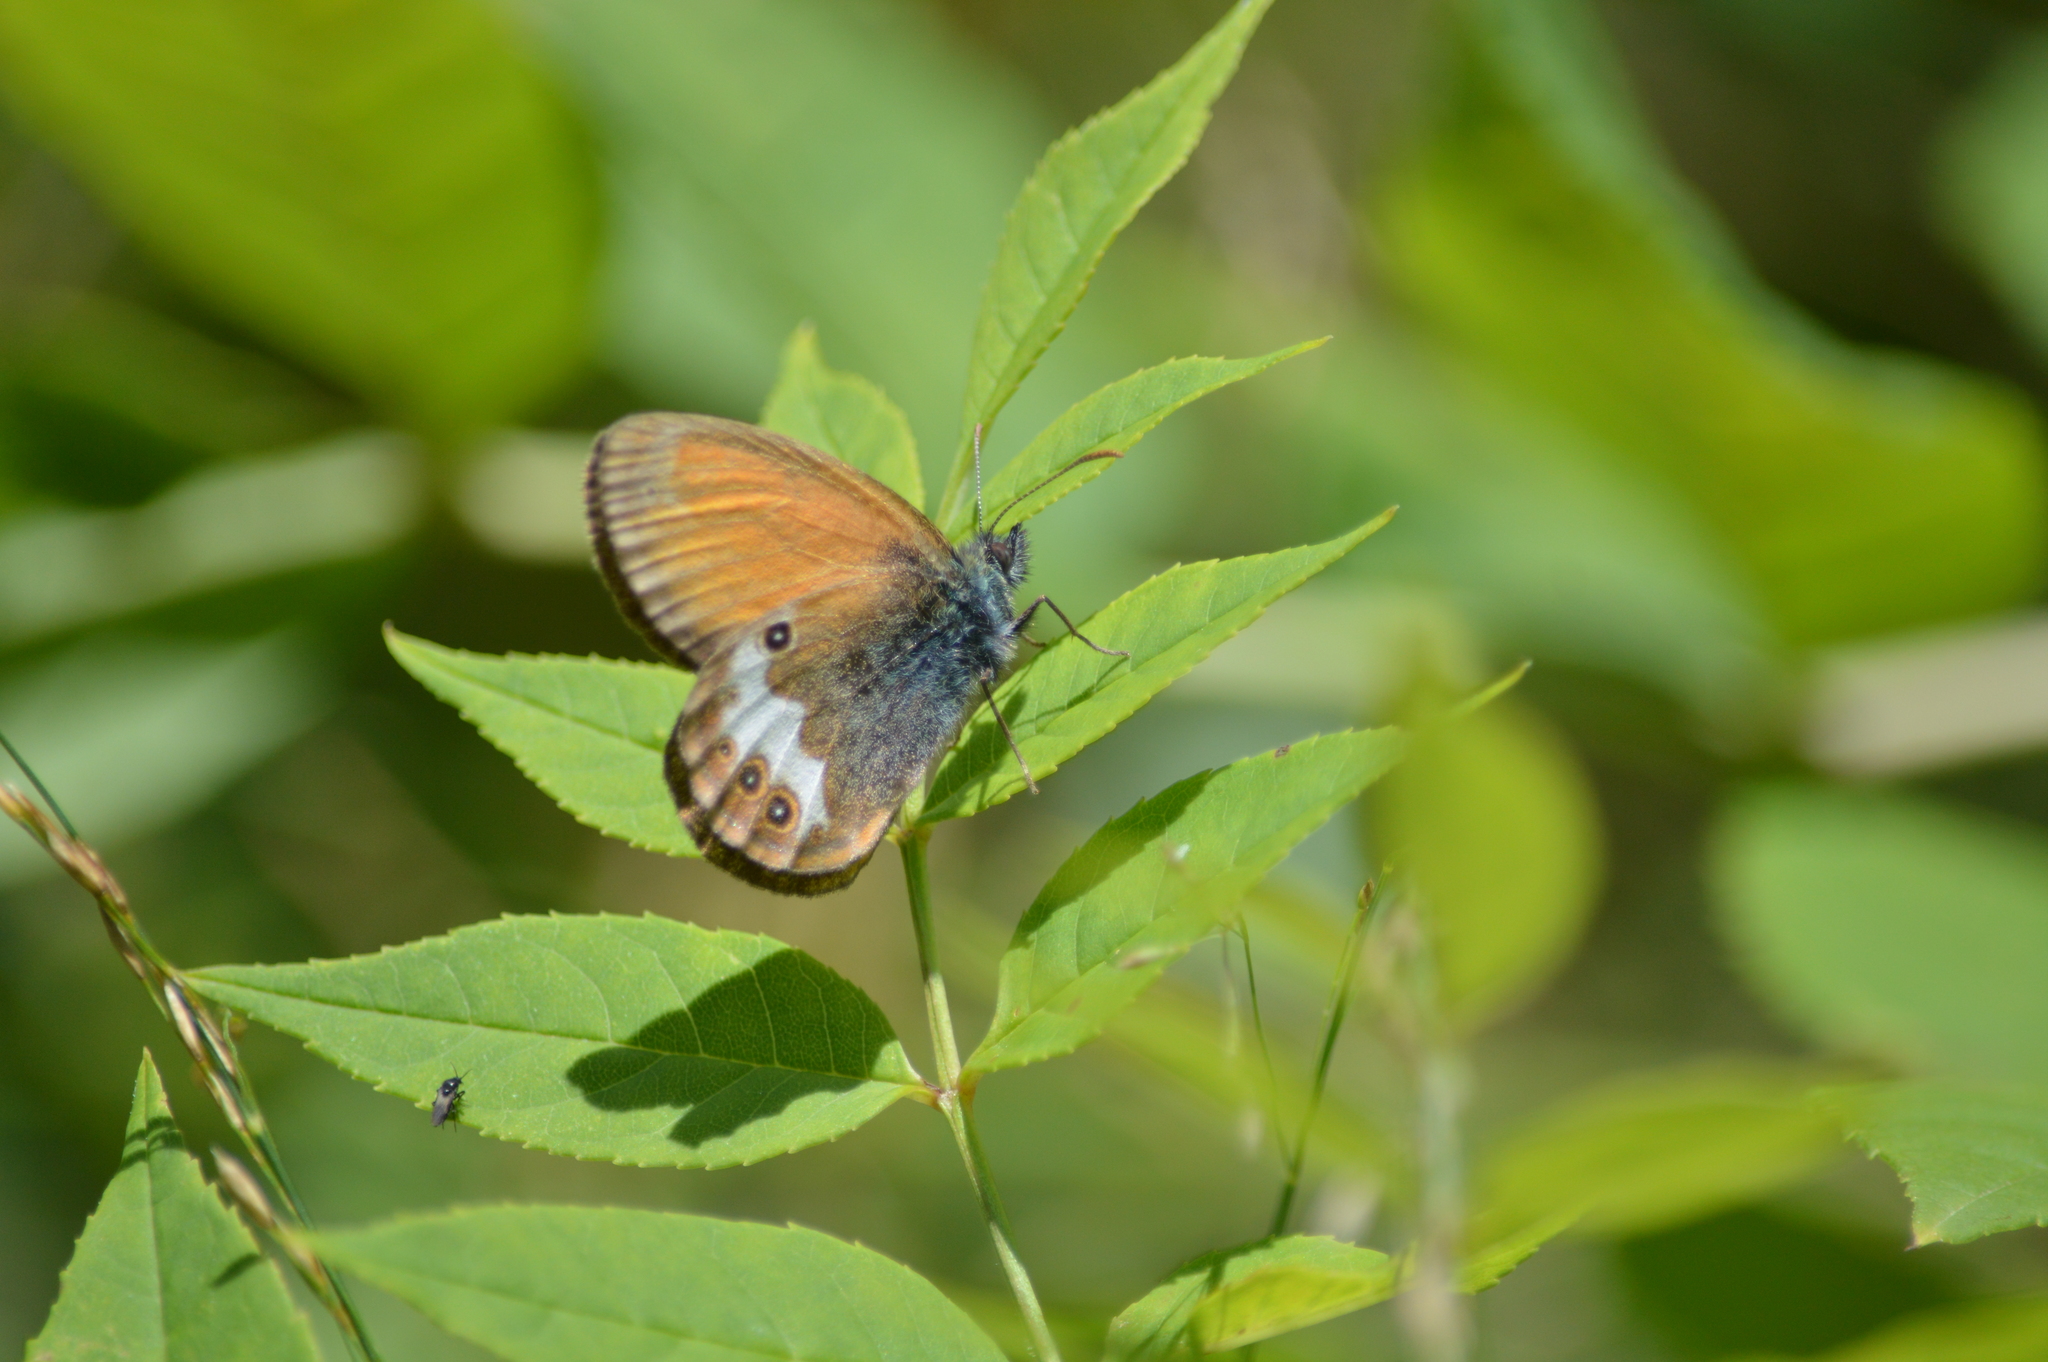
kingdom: Animalia
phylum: Arthropoda
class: Insecta
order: Lepidoptera
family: Nymphalidae
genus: Coenonympha
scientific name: Coenonympha arcania
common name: Pearly heath
